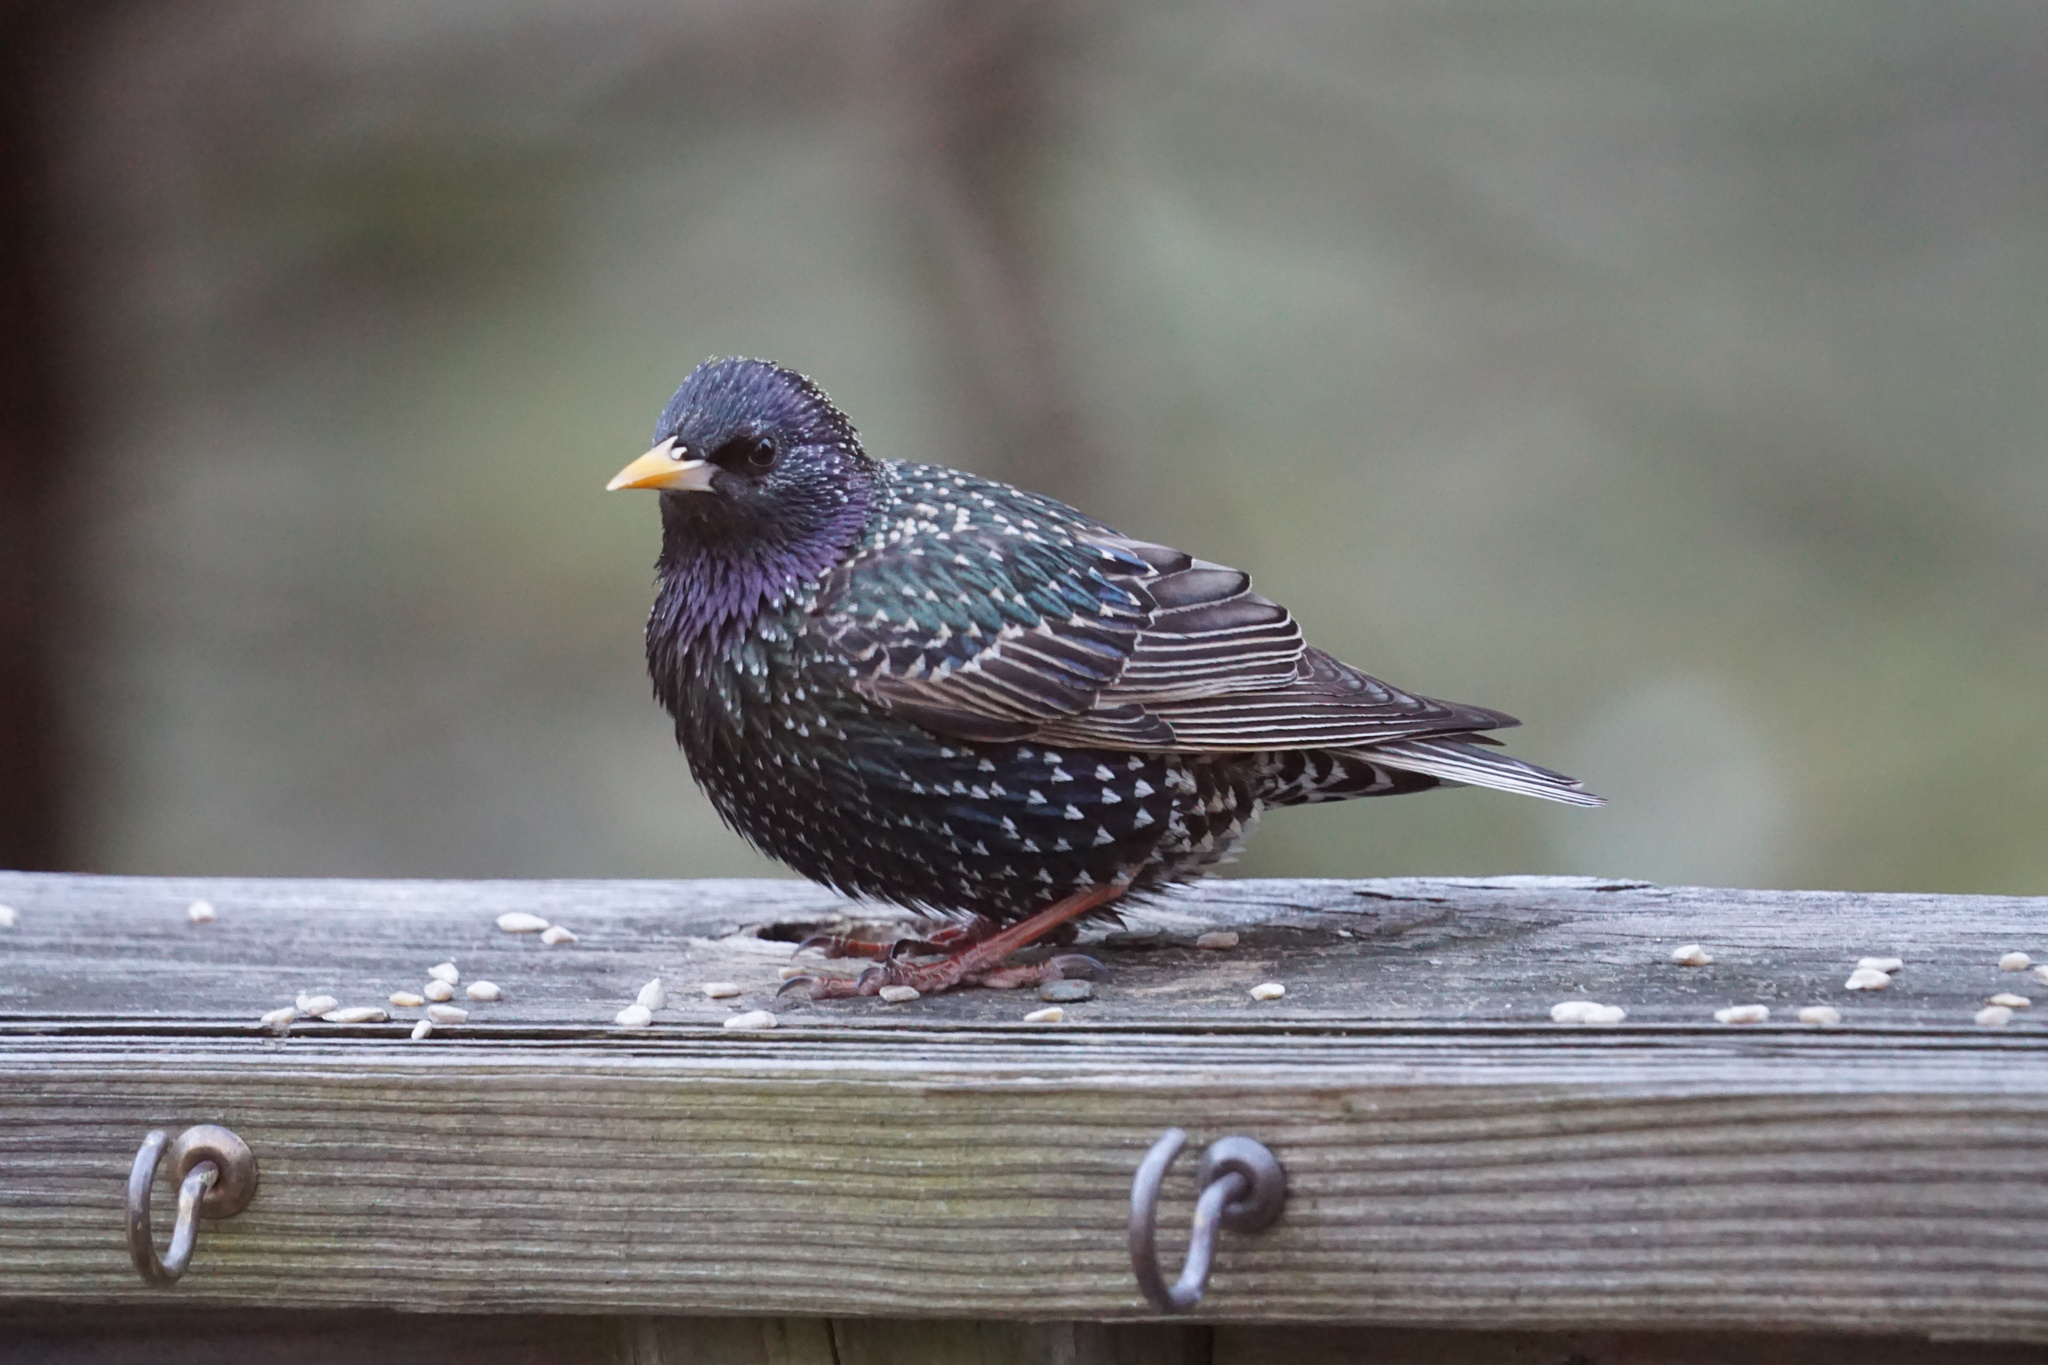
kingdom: Animalia
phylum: Chordata
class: Aves
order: Passeriformes
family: Sturnidae
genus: Sturnus
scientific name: Sturnus vulgaris
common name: Common starling
